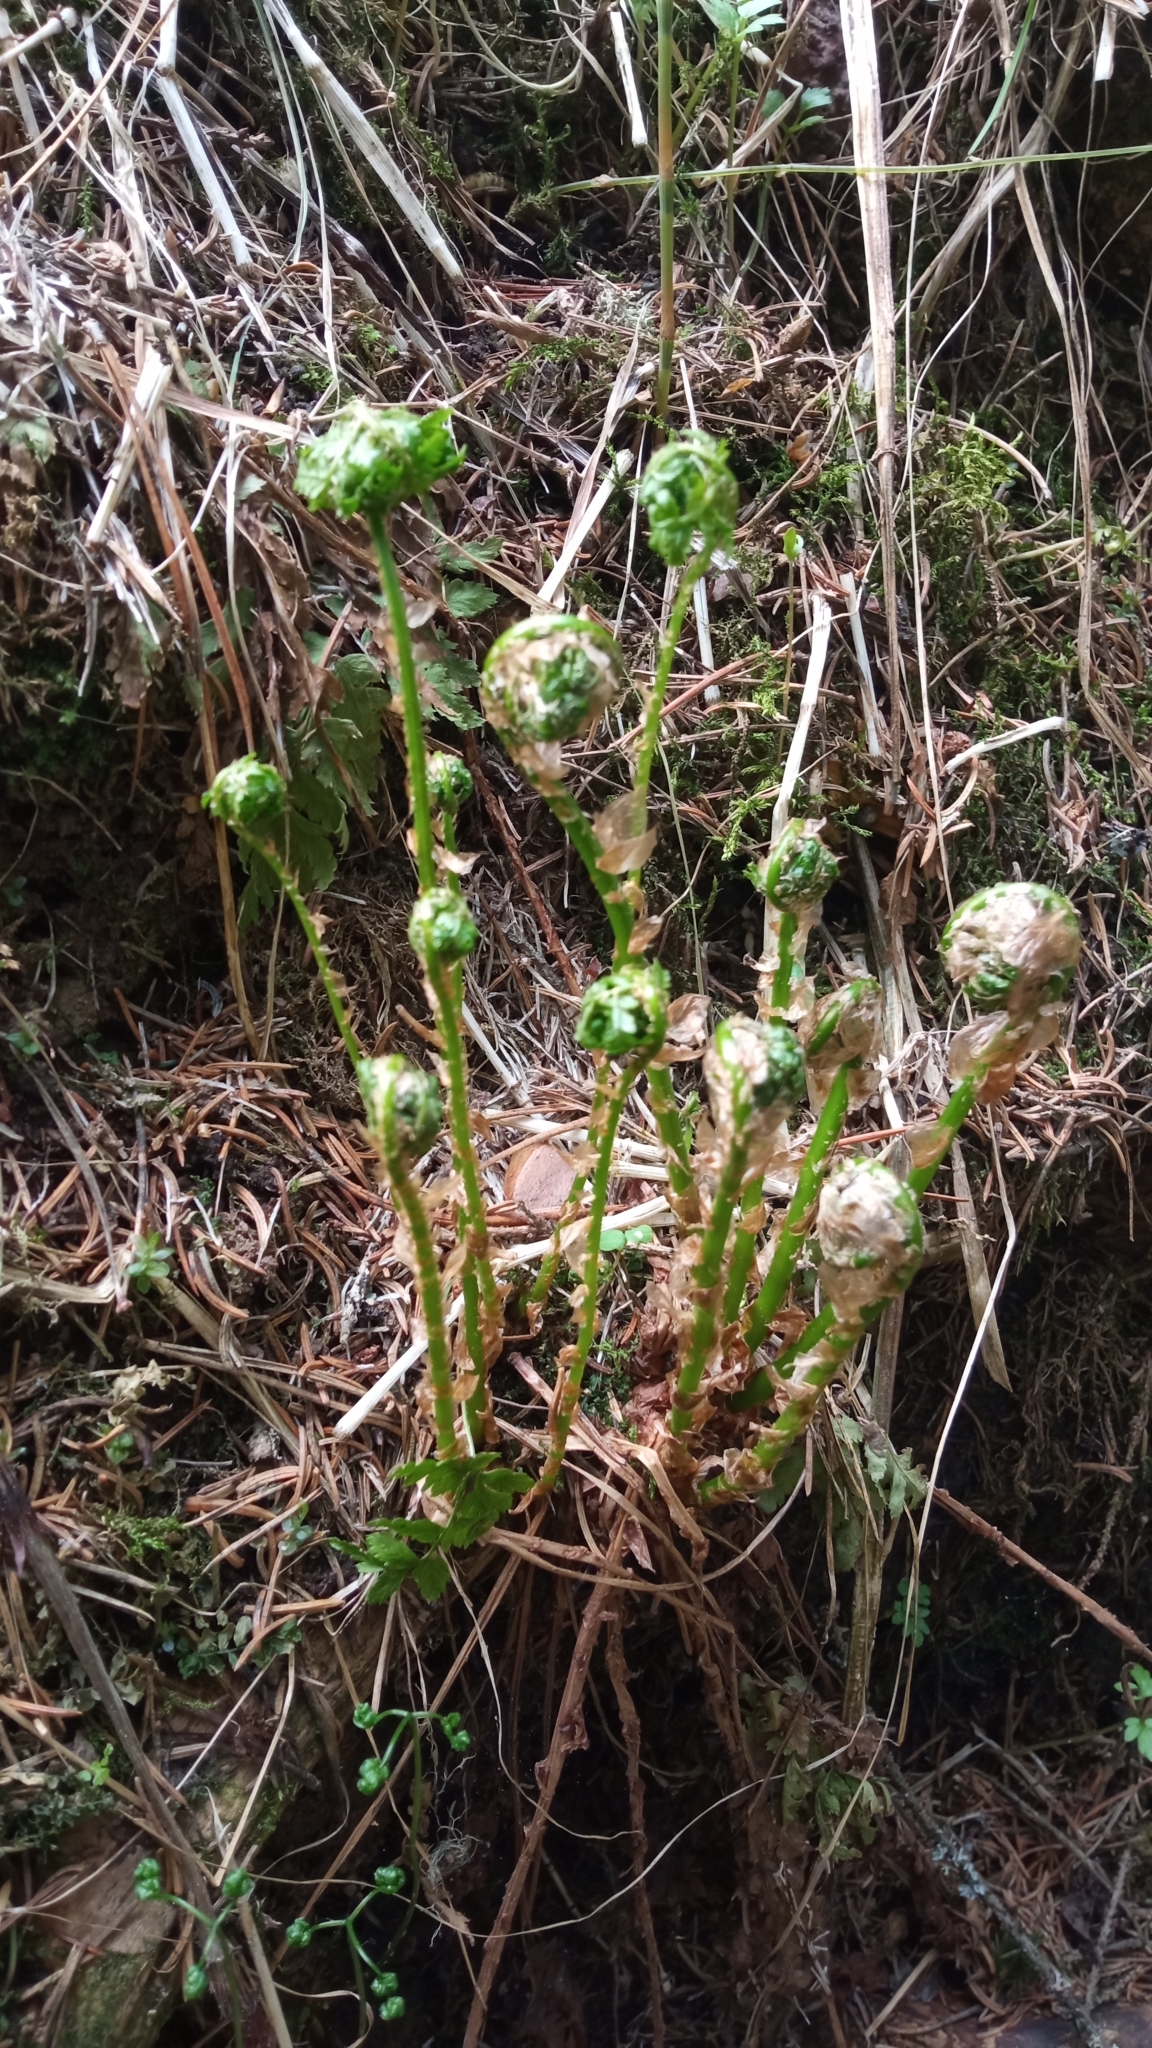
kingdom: Plantae
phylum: Tracheophyta
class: Polypodiopsida
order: Polypodiales
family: Dryopteridaceae
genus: Dryopteris
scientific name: Dryopteris expansa
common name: Northern buckler fern
